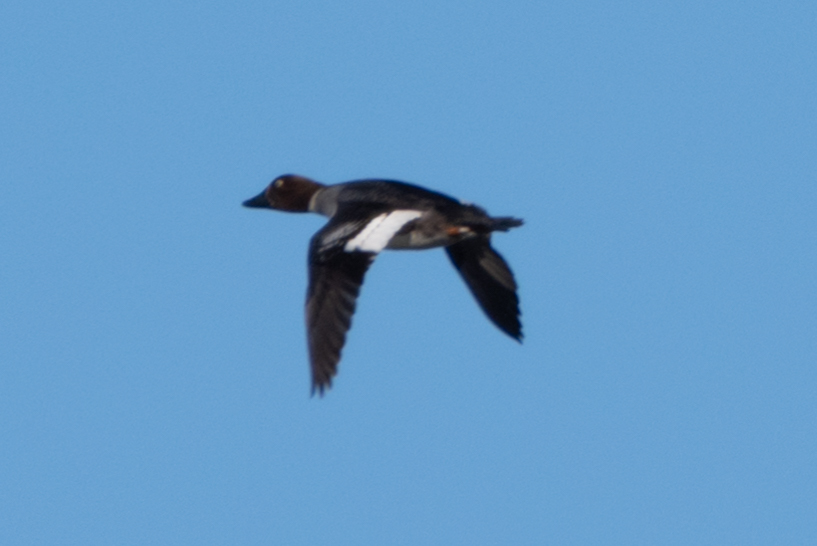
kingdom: Animalia
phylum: Chordata
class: Aves
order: Anseriformes
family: Anatidae
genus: Bucephala
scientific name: Bucephala clangula
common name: Common goldeneye
